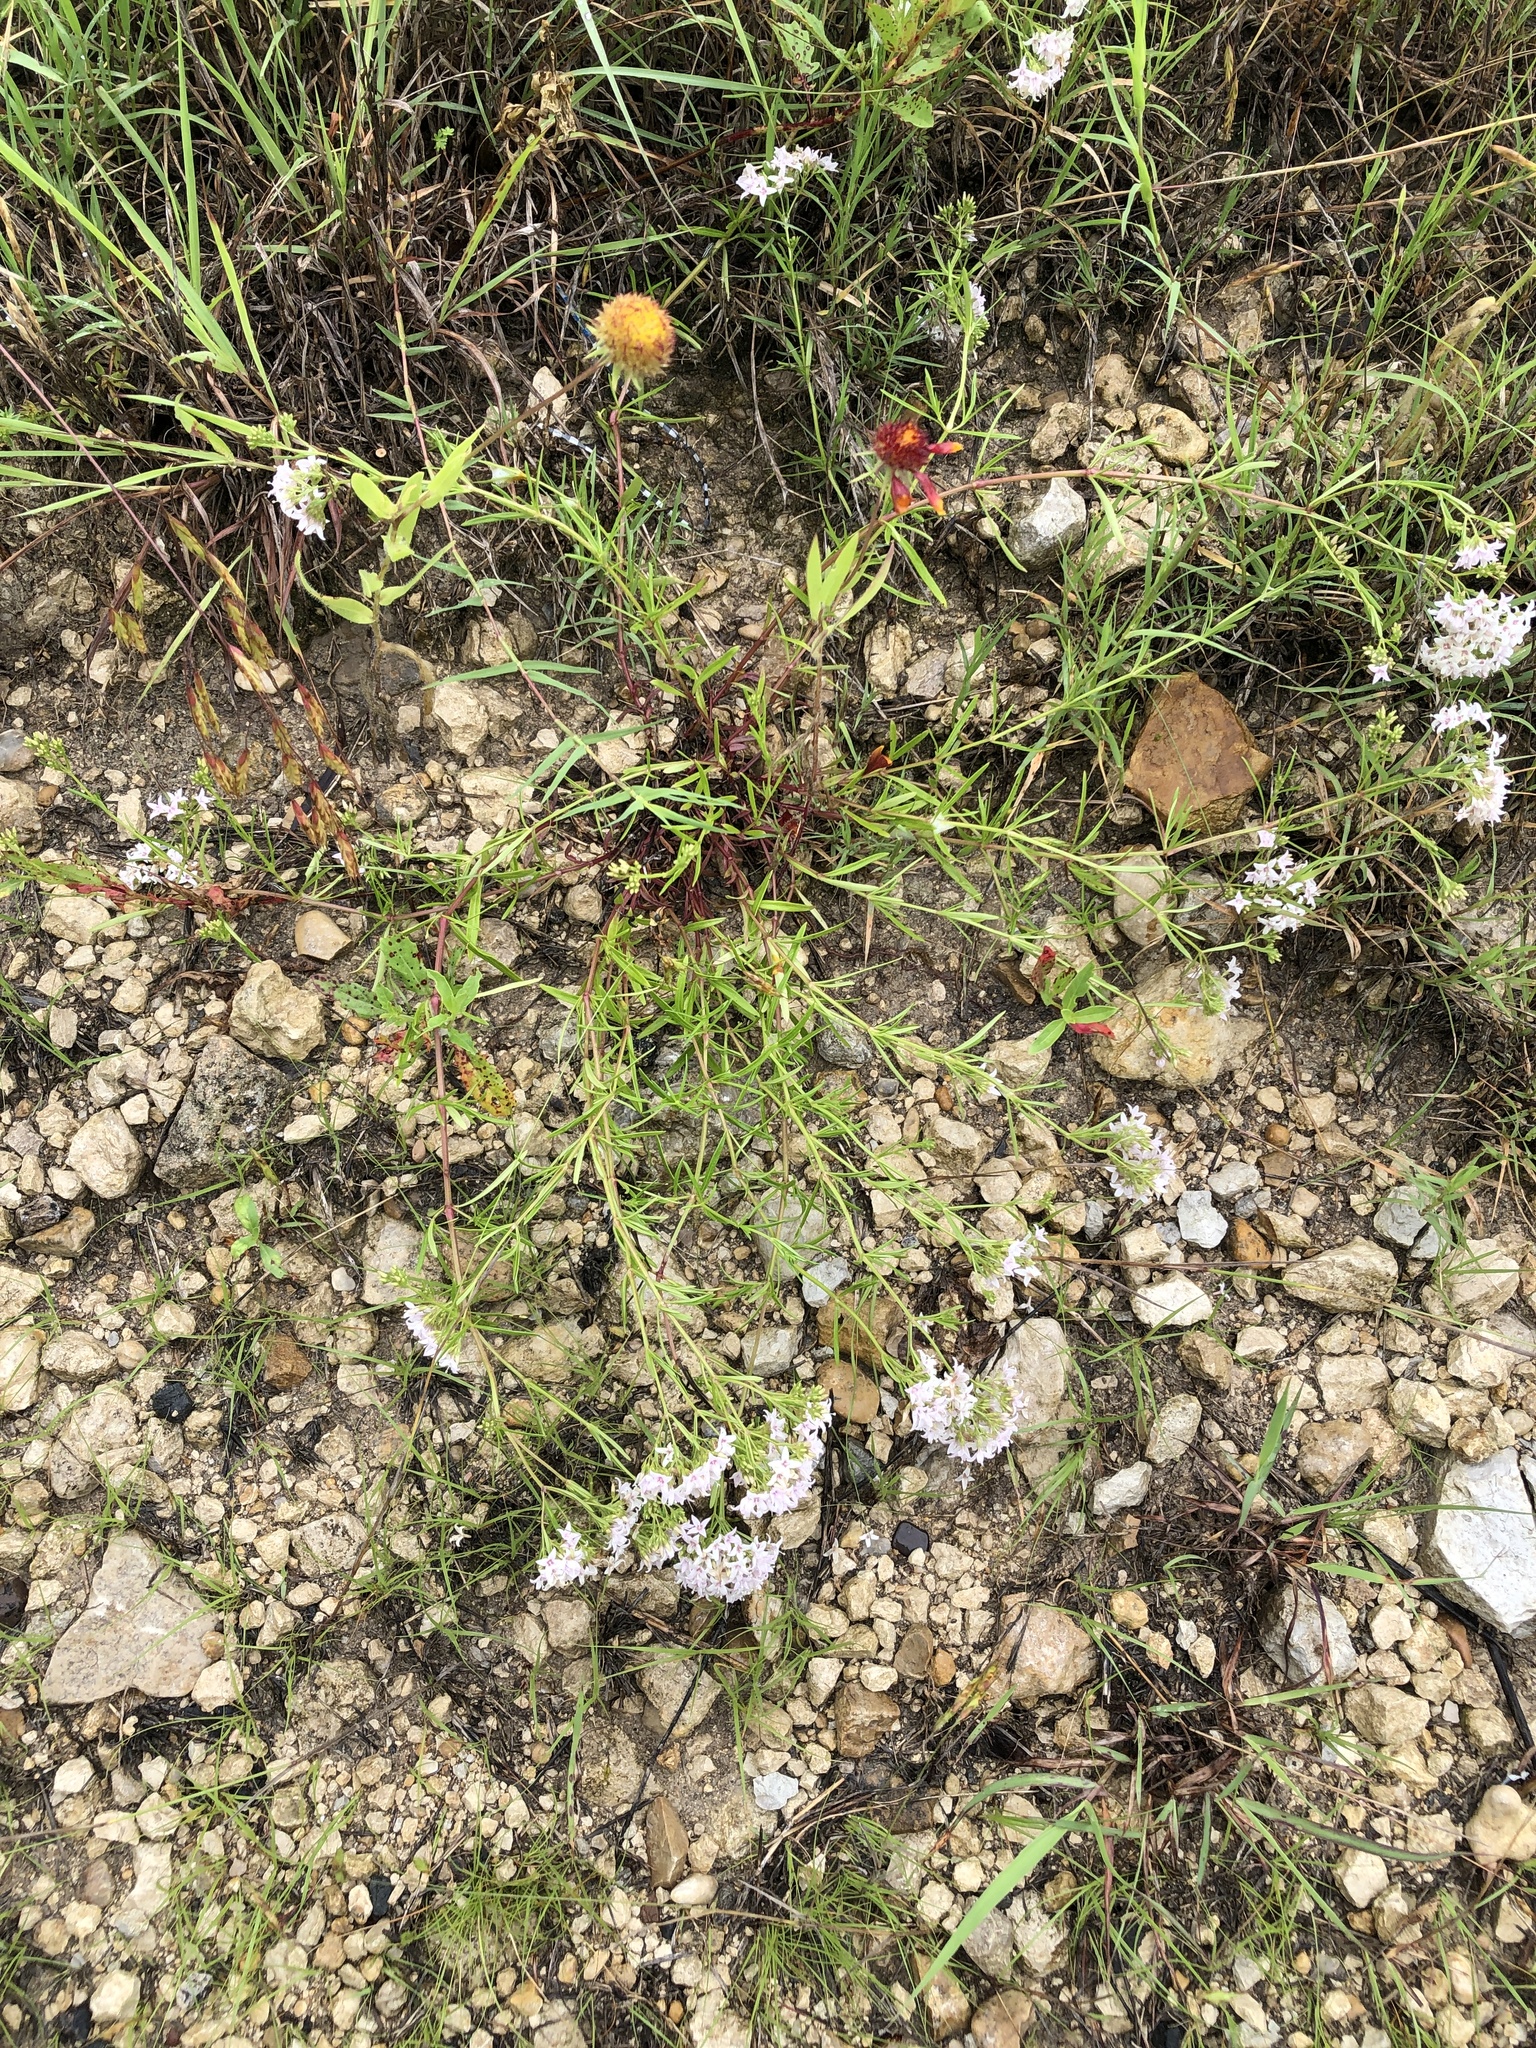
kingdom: Plantae
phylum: Tracheophyta
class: Magnoliopsida
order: Gentianales
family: Rubiaceae
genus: Stenaria
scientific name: Stenaria nigricans
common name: Diamondflowers
